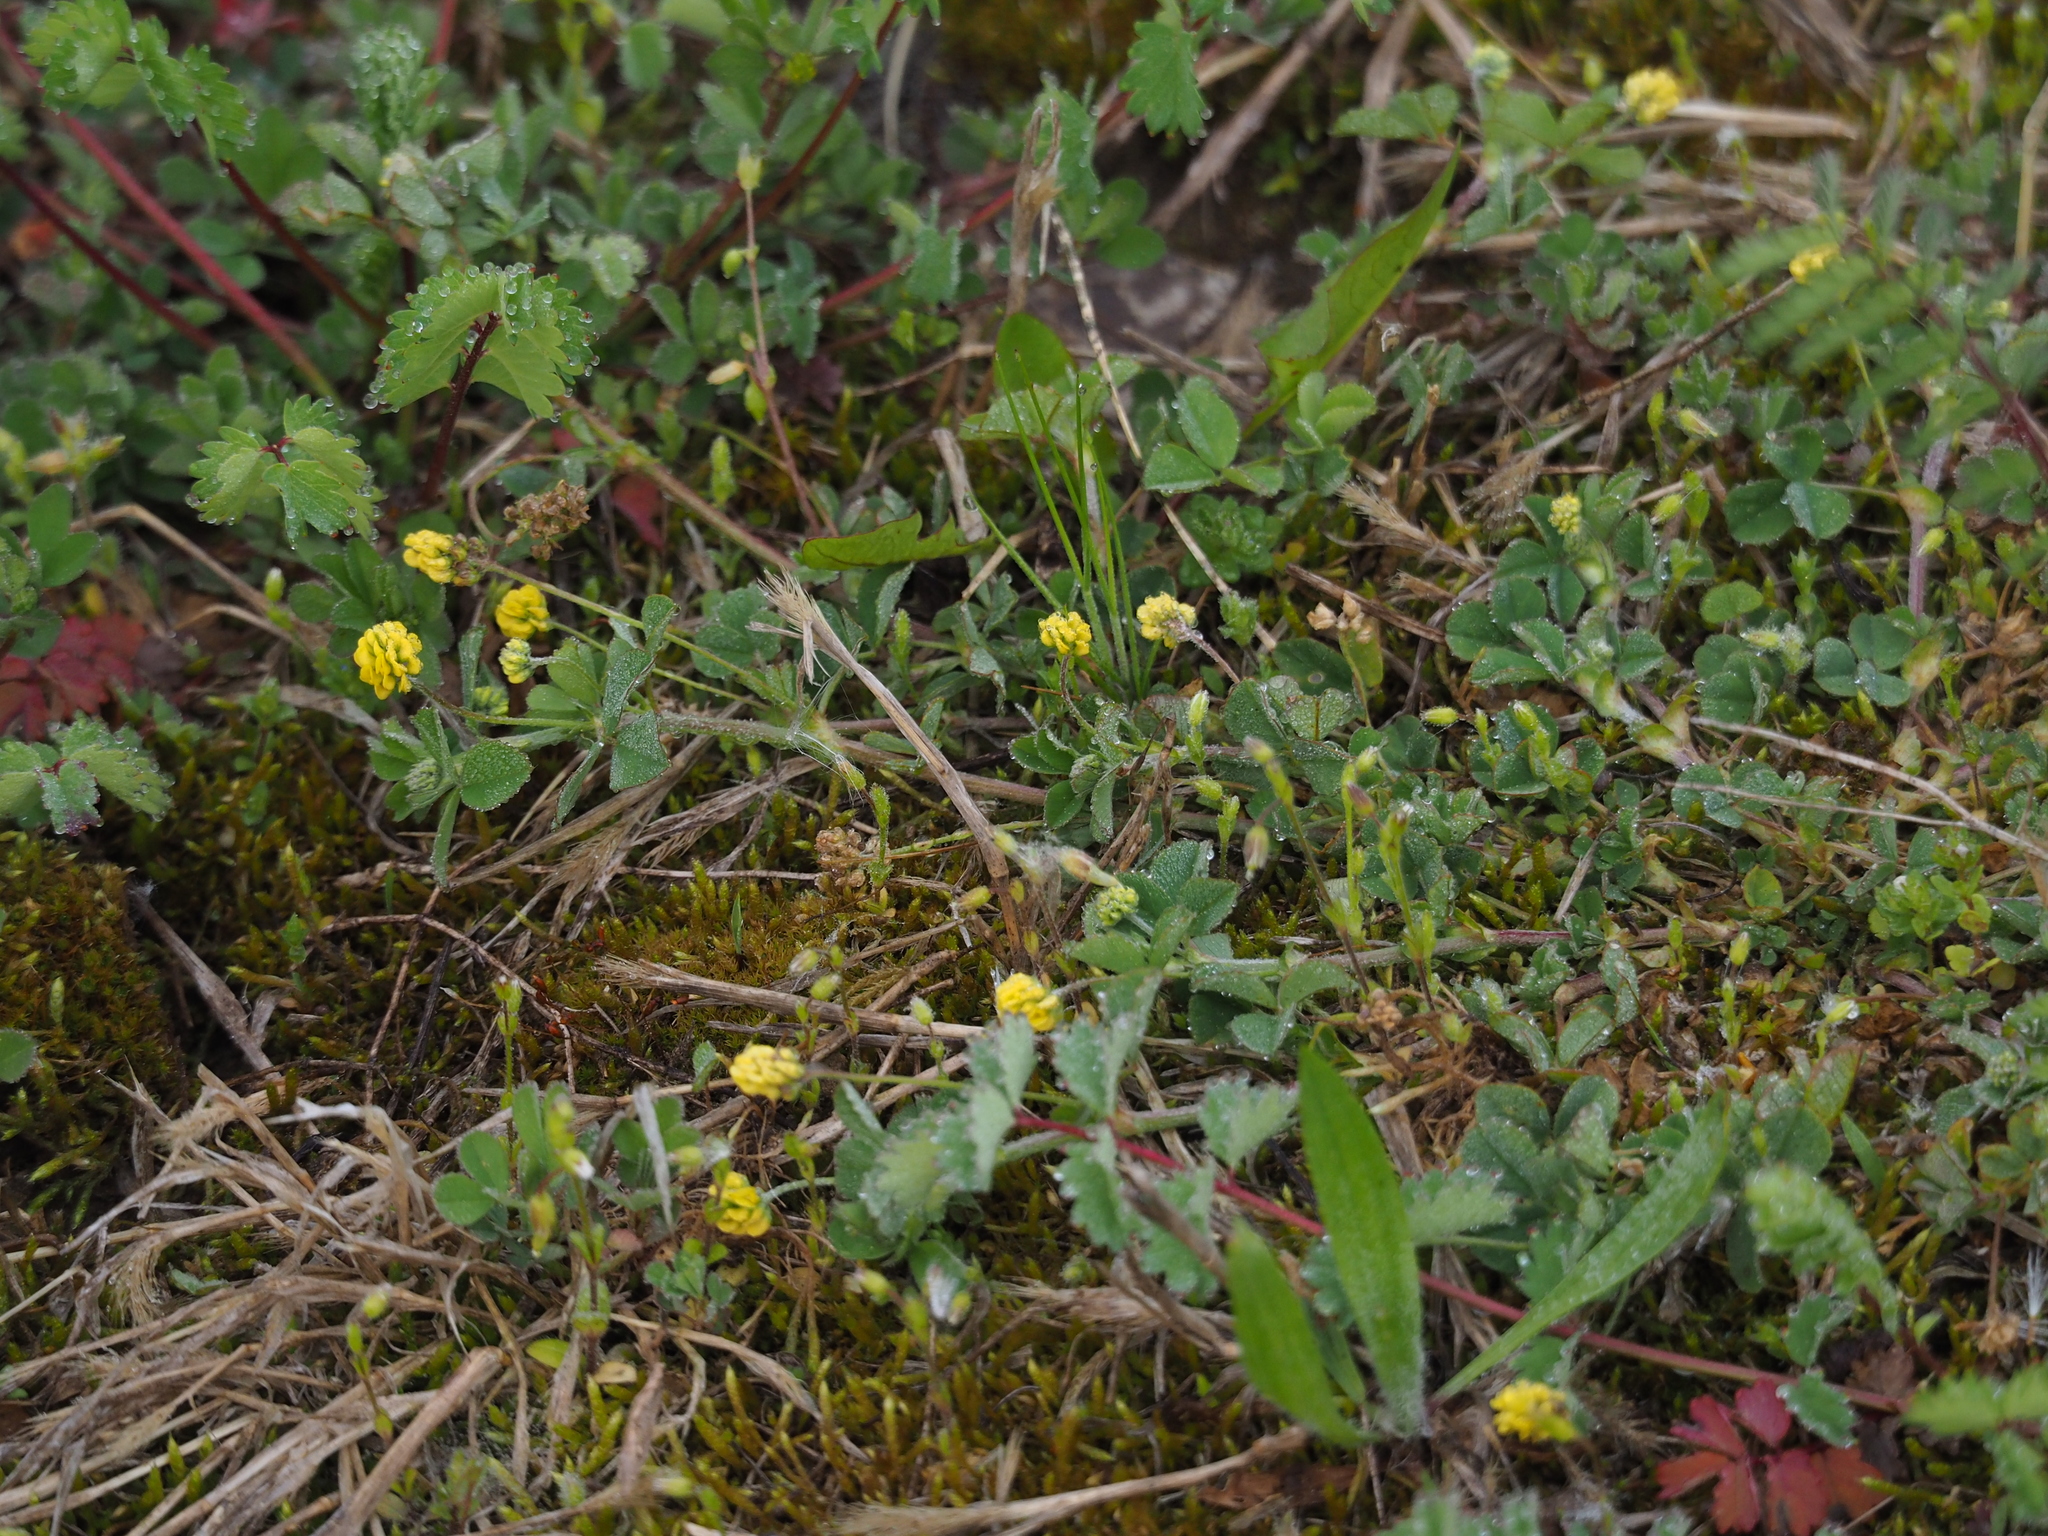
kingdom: Plantae
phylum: Tracheophyta
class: Magnoliopsida
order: Fabales
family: Fabaceae
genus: Medicago
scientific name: Medicago lupulina
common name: Black medick
